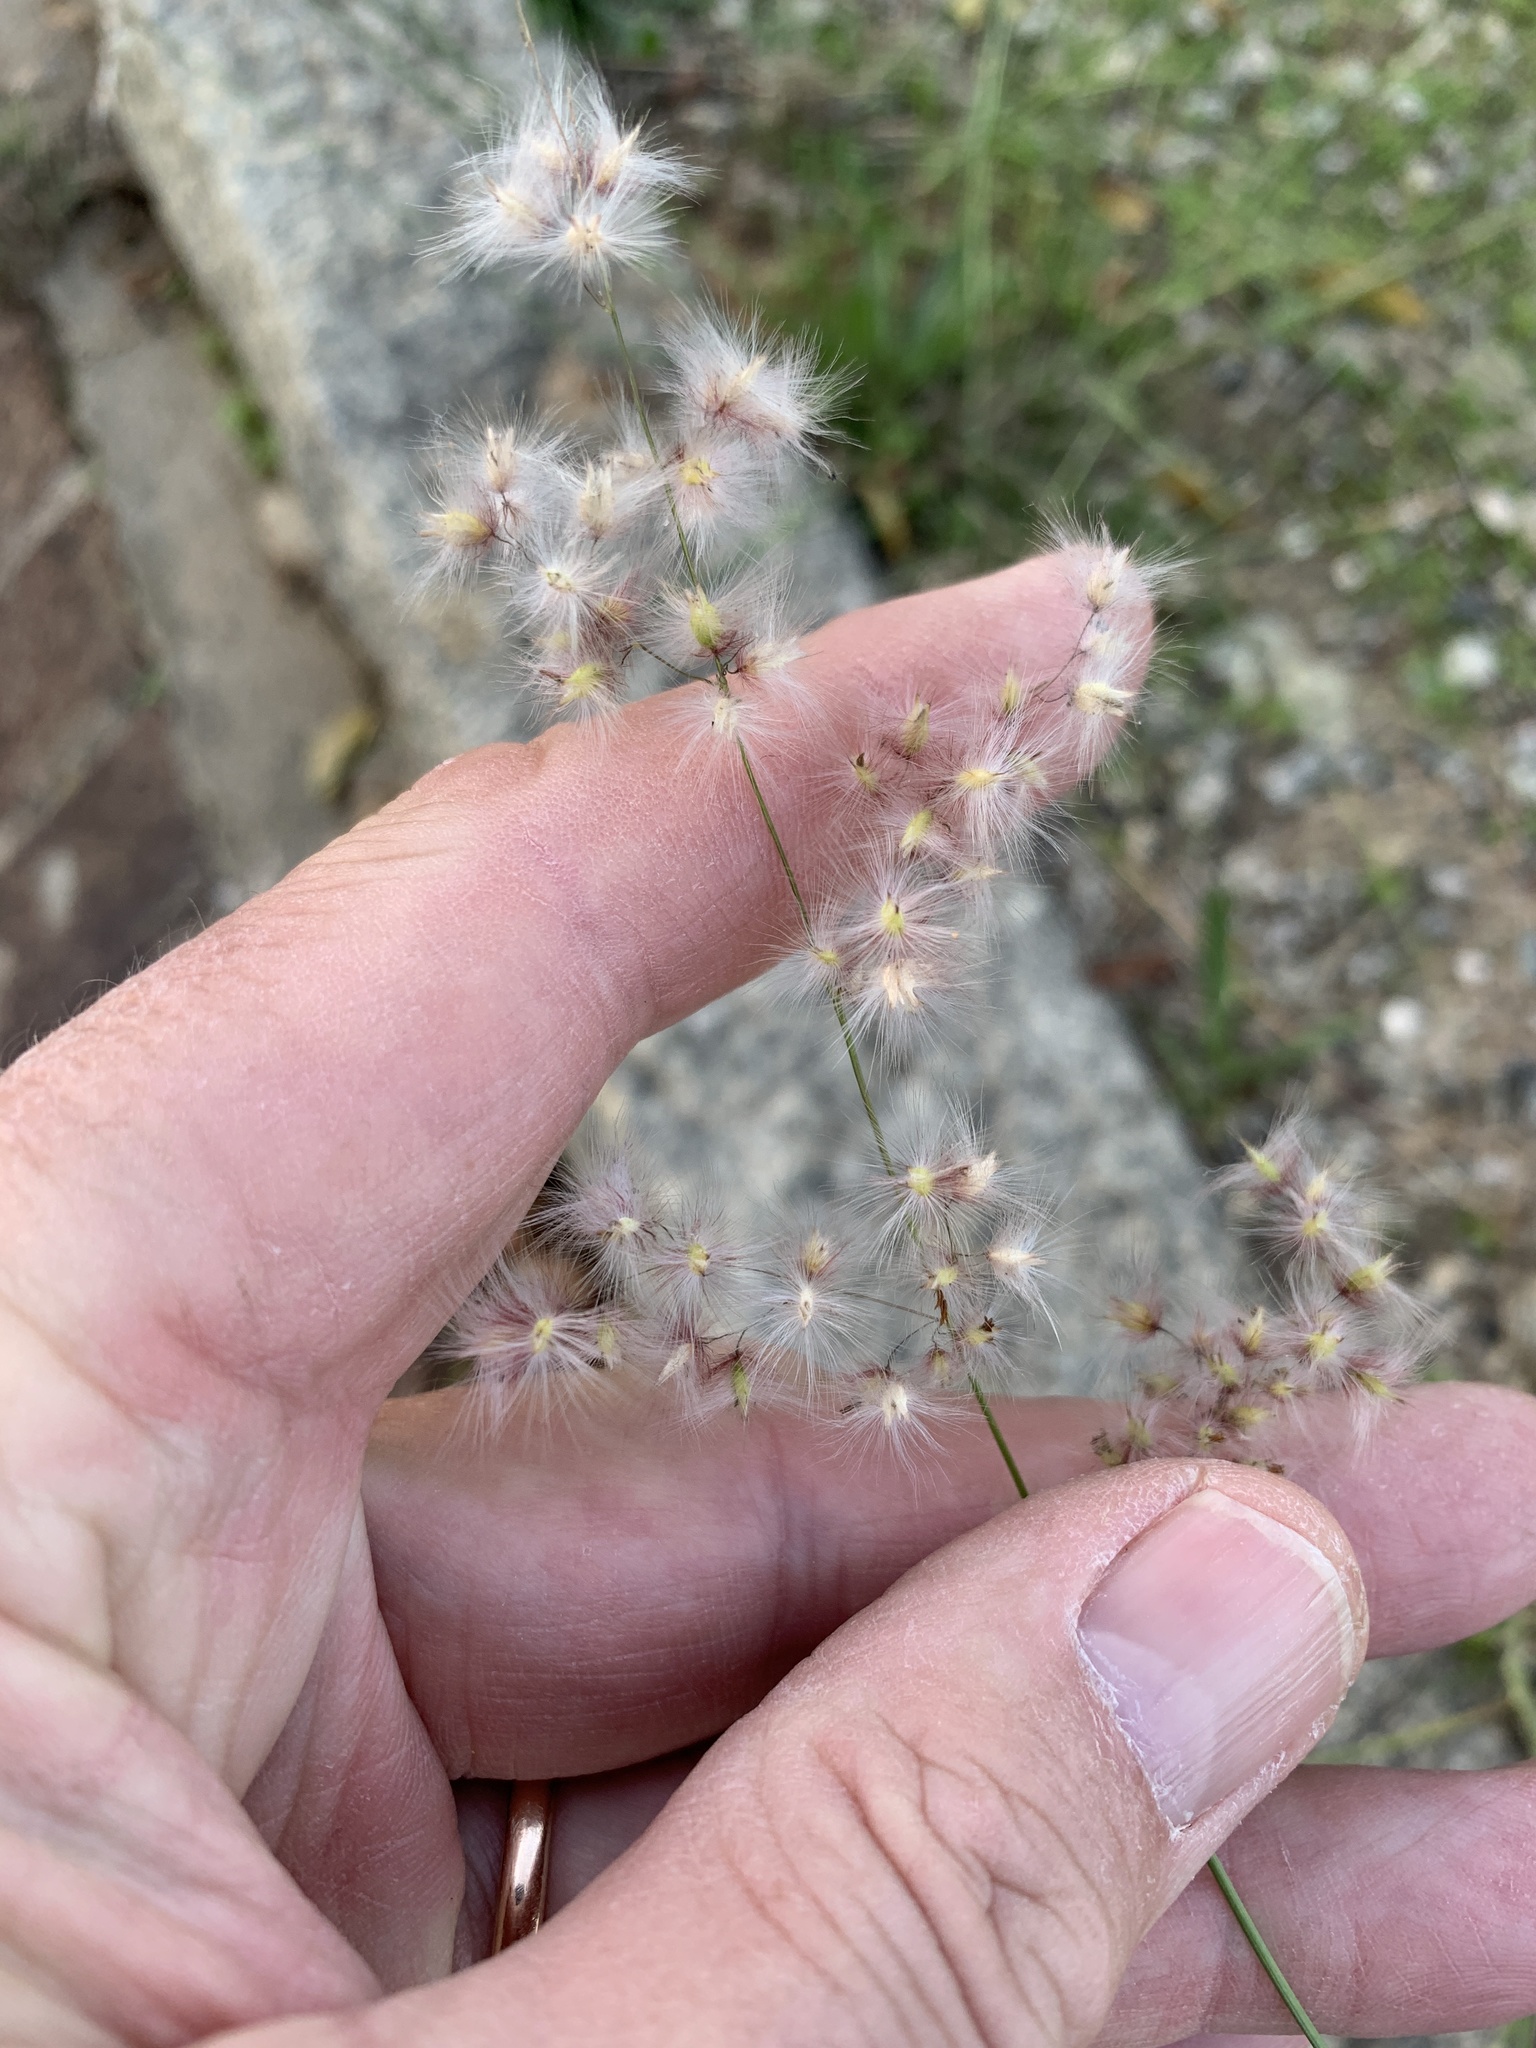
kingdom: Plantae
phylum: Tracheophyta
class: Liliopsida
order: Poales
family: Poaceae
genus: Melinis
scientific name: Melinis repens
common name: Rose natal grass
